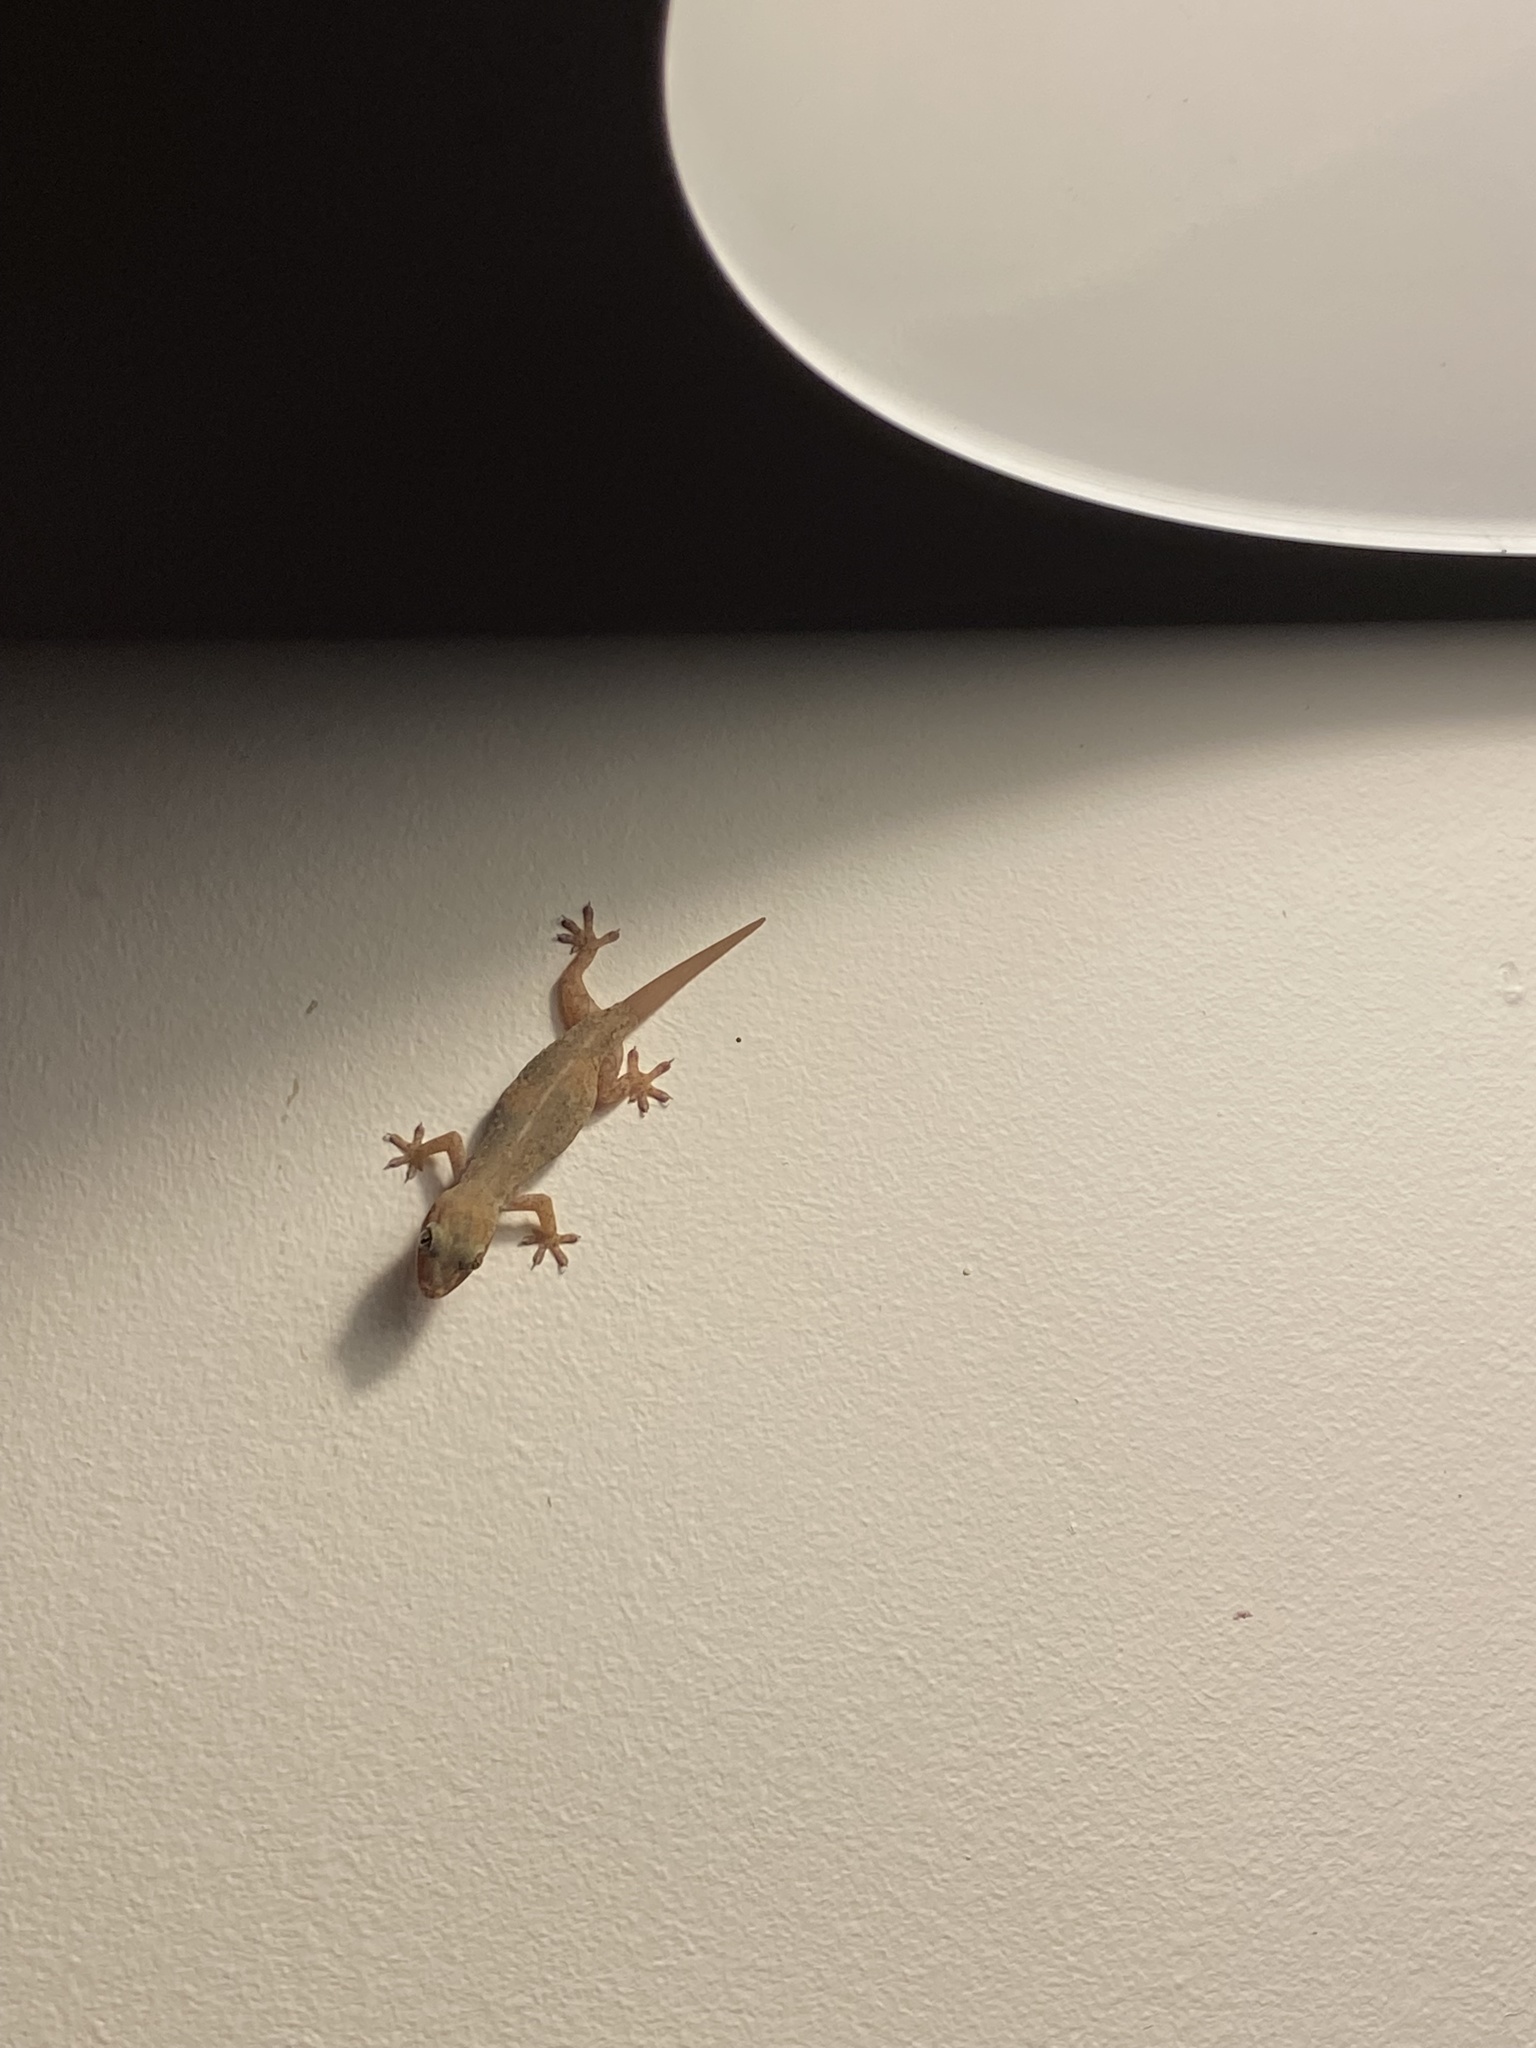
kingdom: Animalia
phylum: Chordata
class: Squamata
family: Gekkonidae
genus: Hemidactylus
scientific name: Hemidactylus frenatus
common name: Common house gecko
